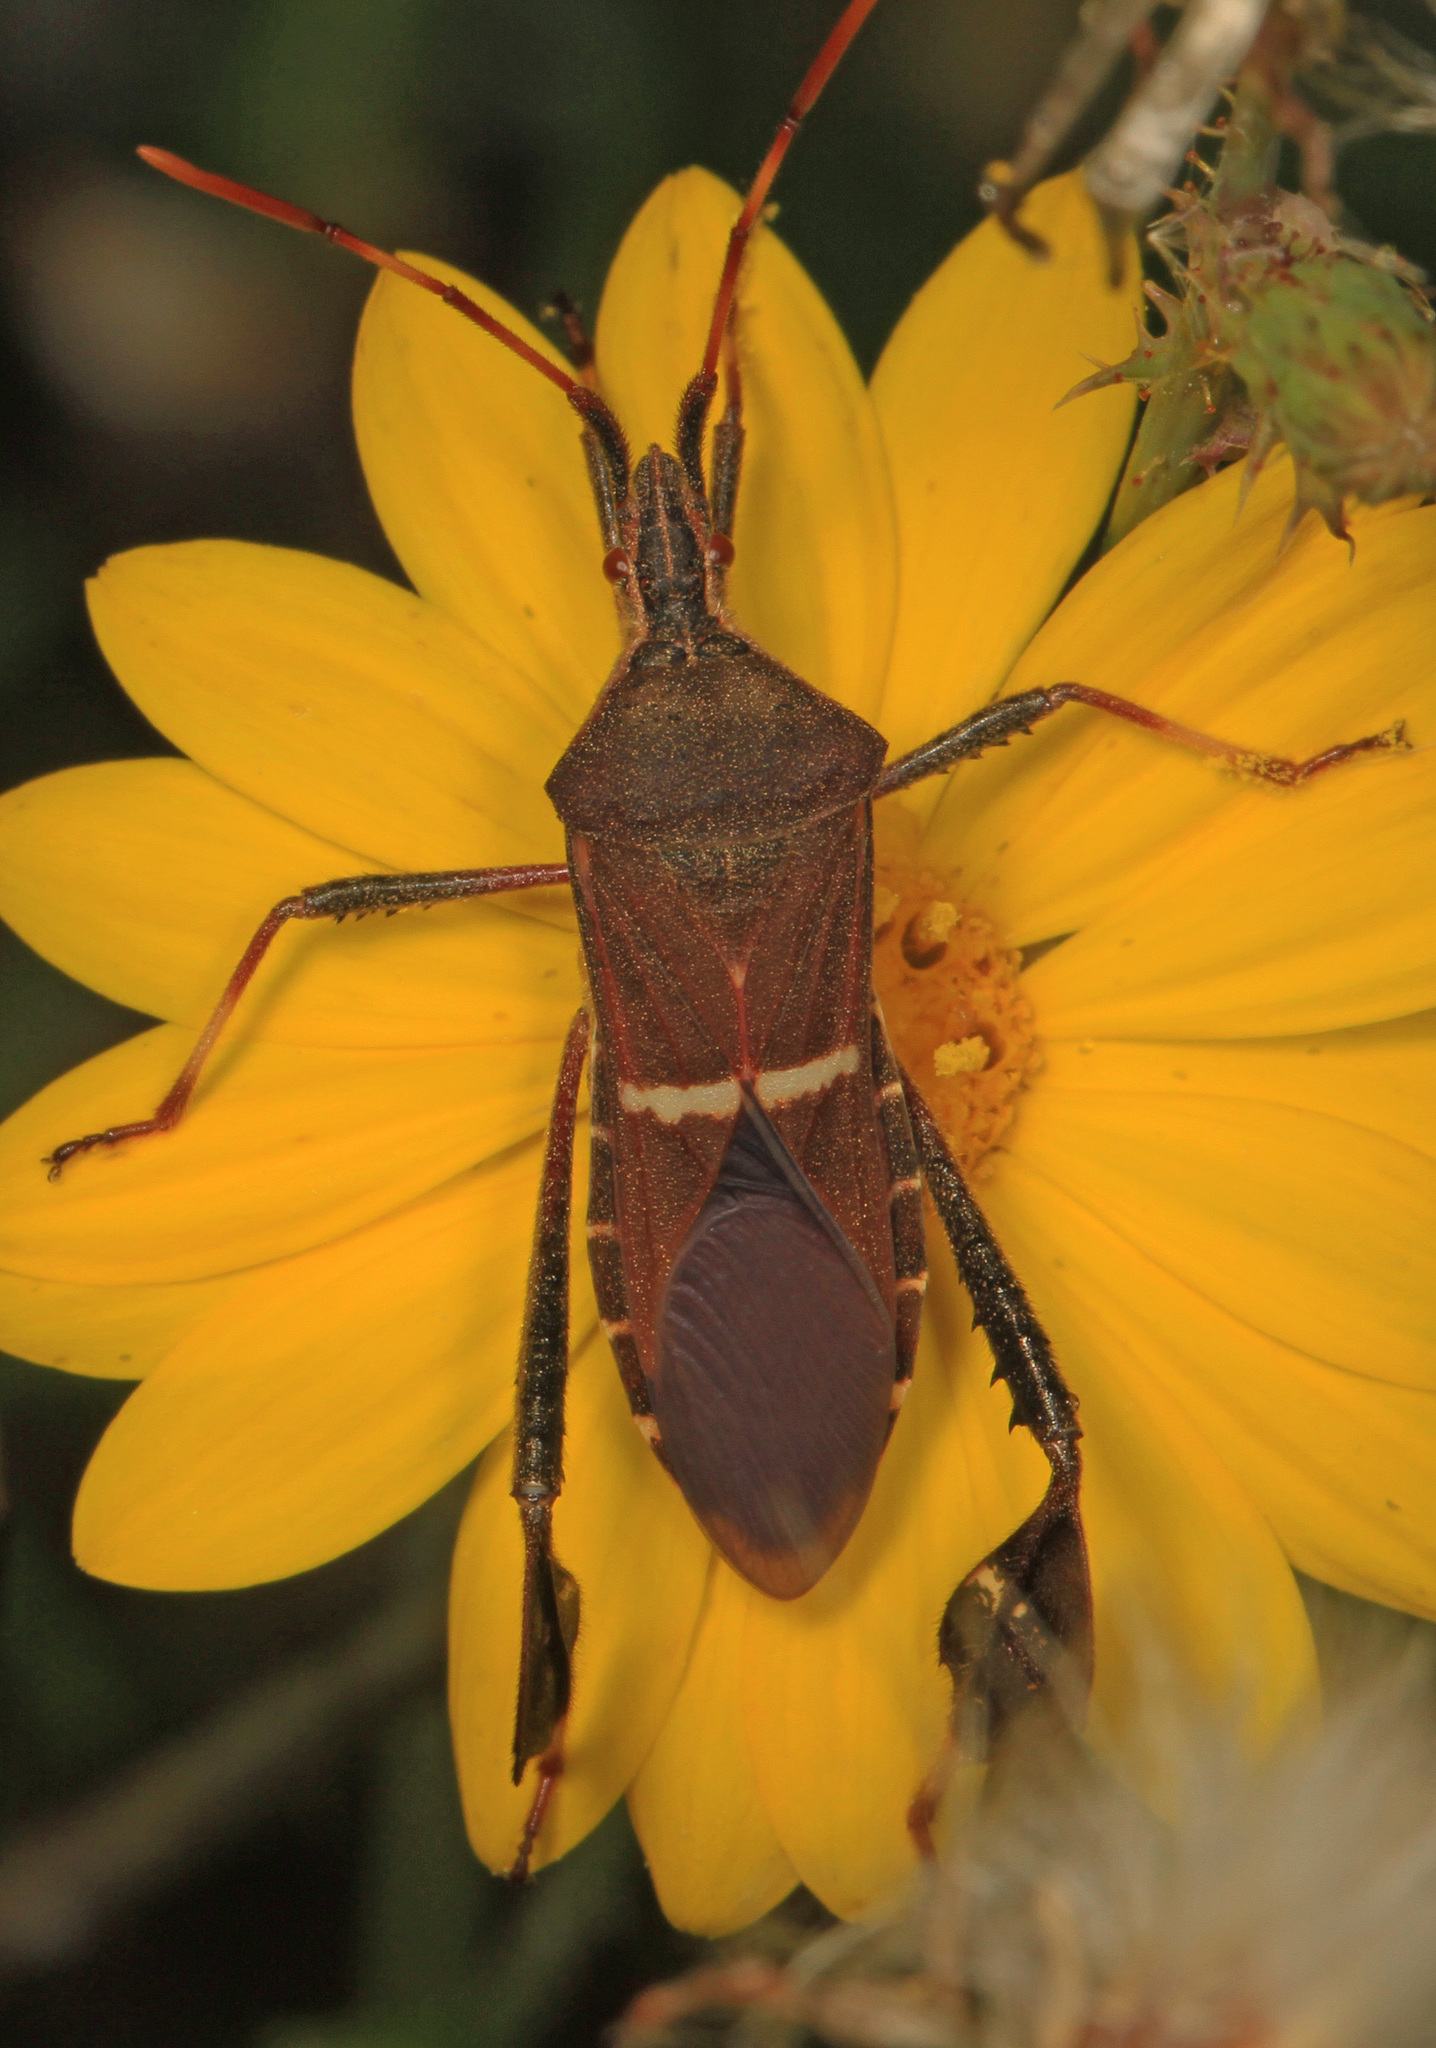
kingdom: Animalia
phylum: Arthropoda
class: Insecta
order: Hemiptera
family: Coreidae
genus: Leptoglossus
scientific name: Leptoglossus phyllopus
